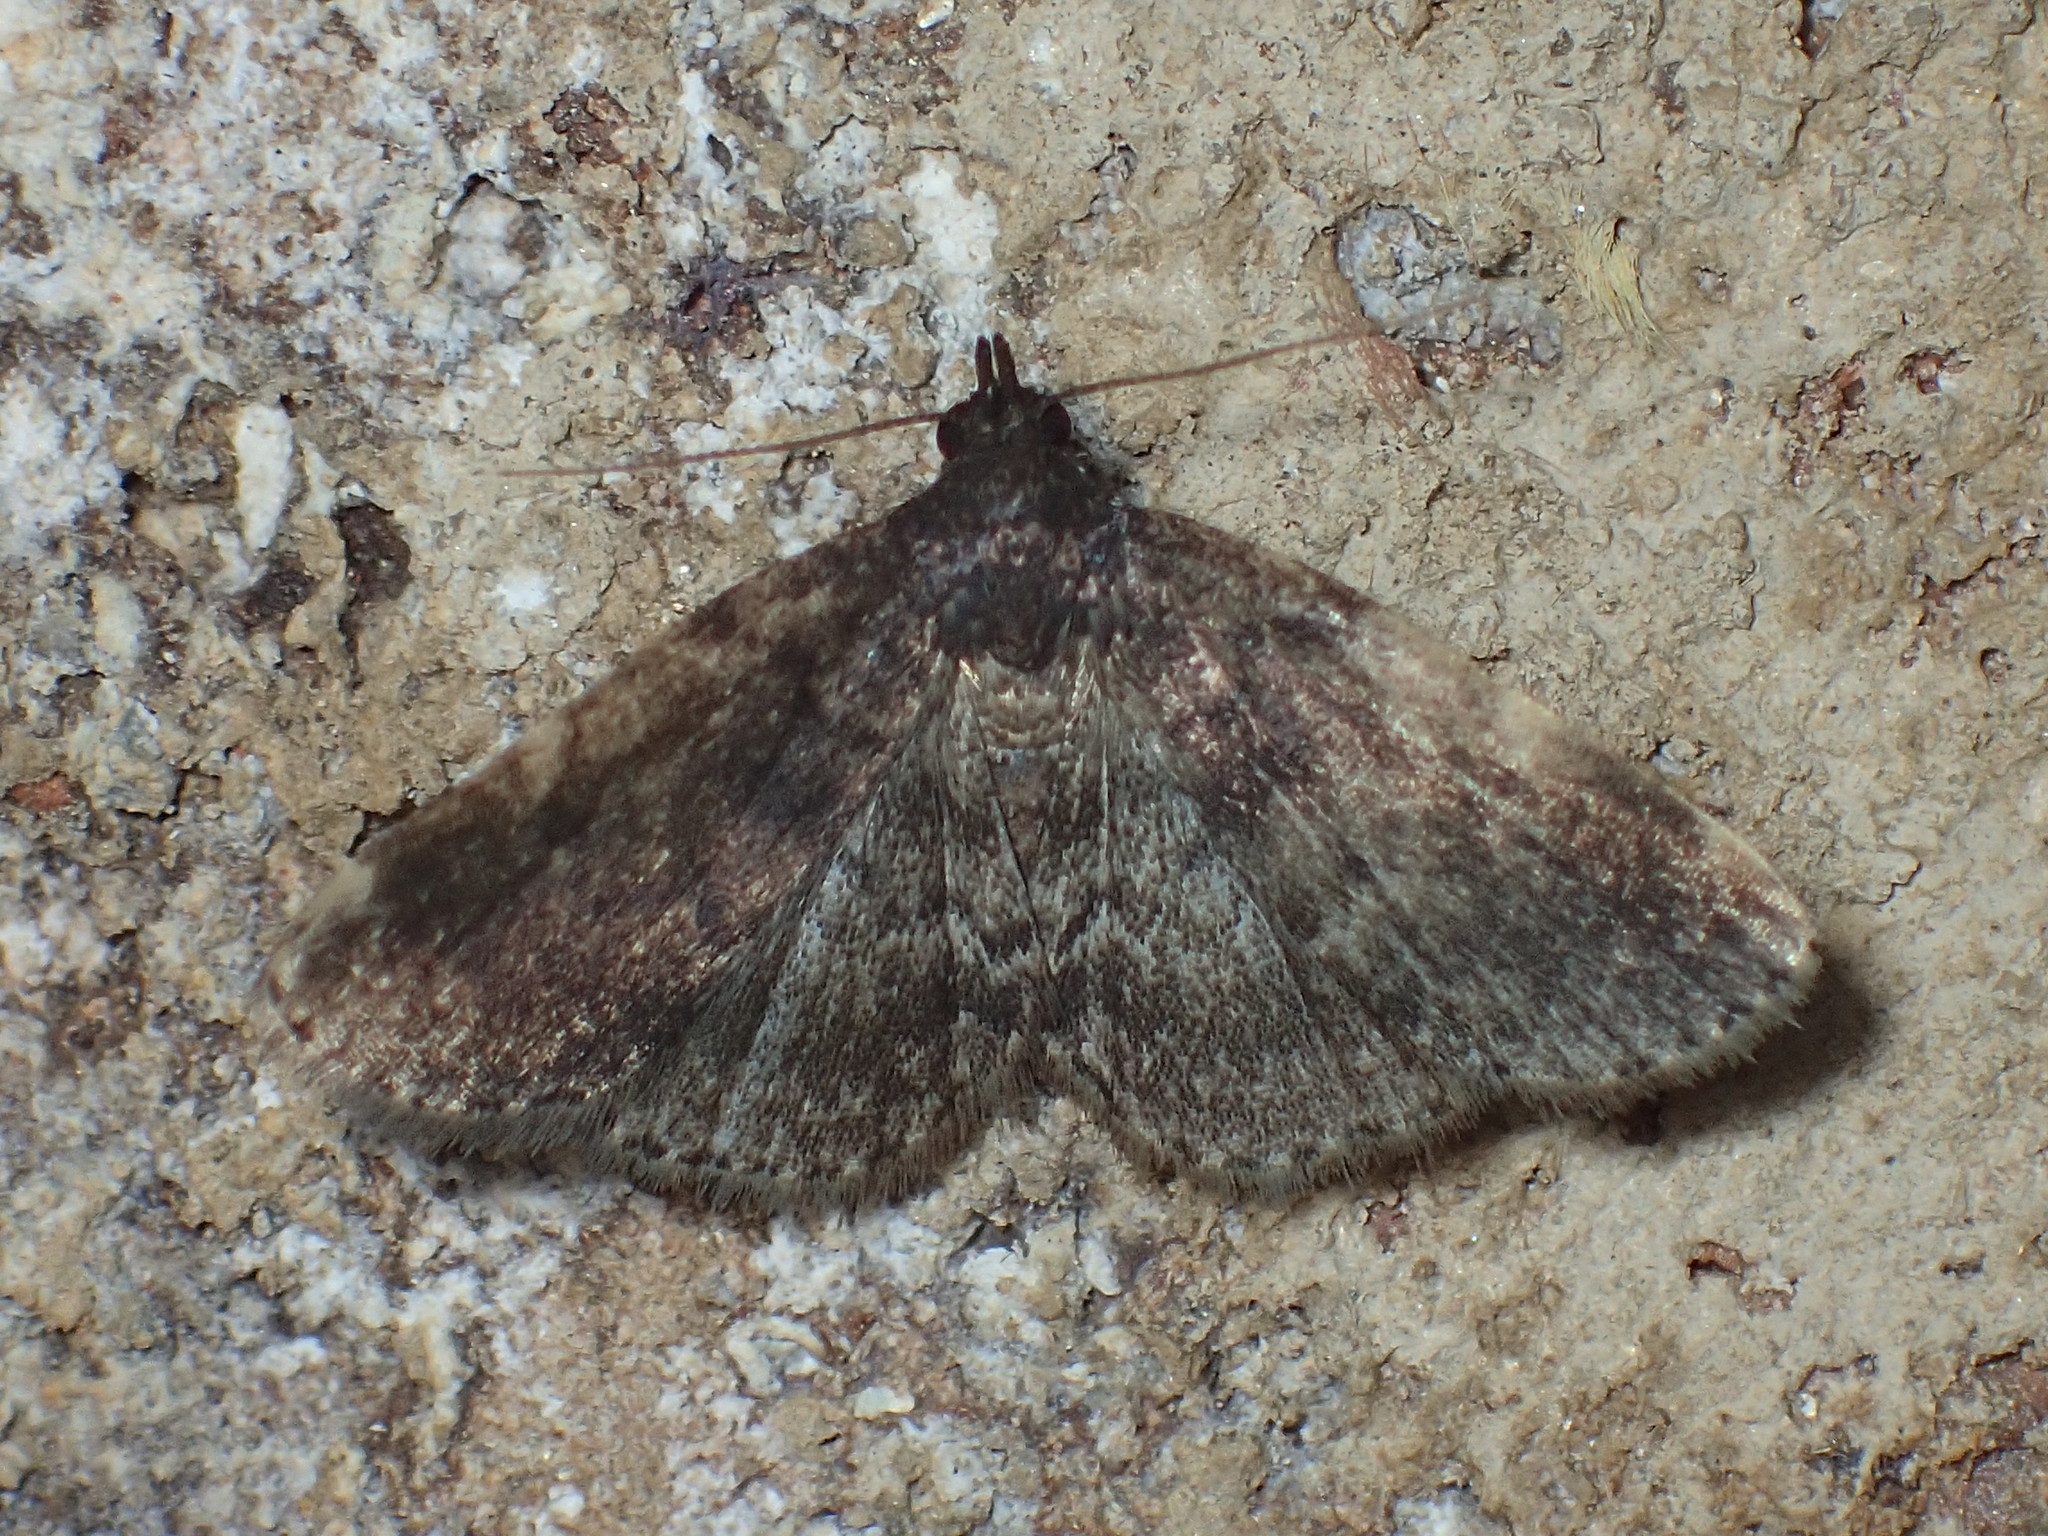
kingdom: Animalia
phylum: Arthropoda
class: Insecta
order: Lepidoptera
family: Erebidae
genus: Idia
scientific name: Idia forbesii
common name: Forbes' idia moth
